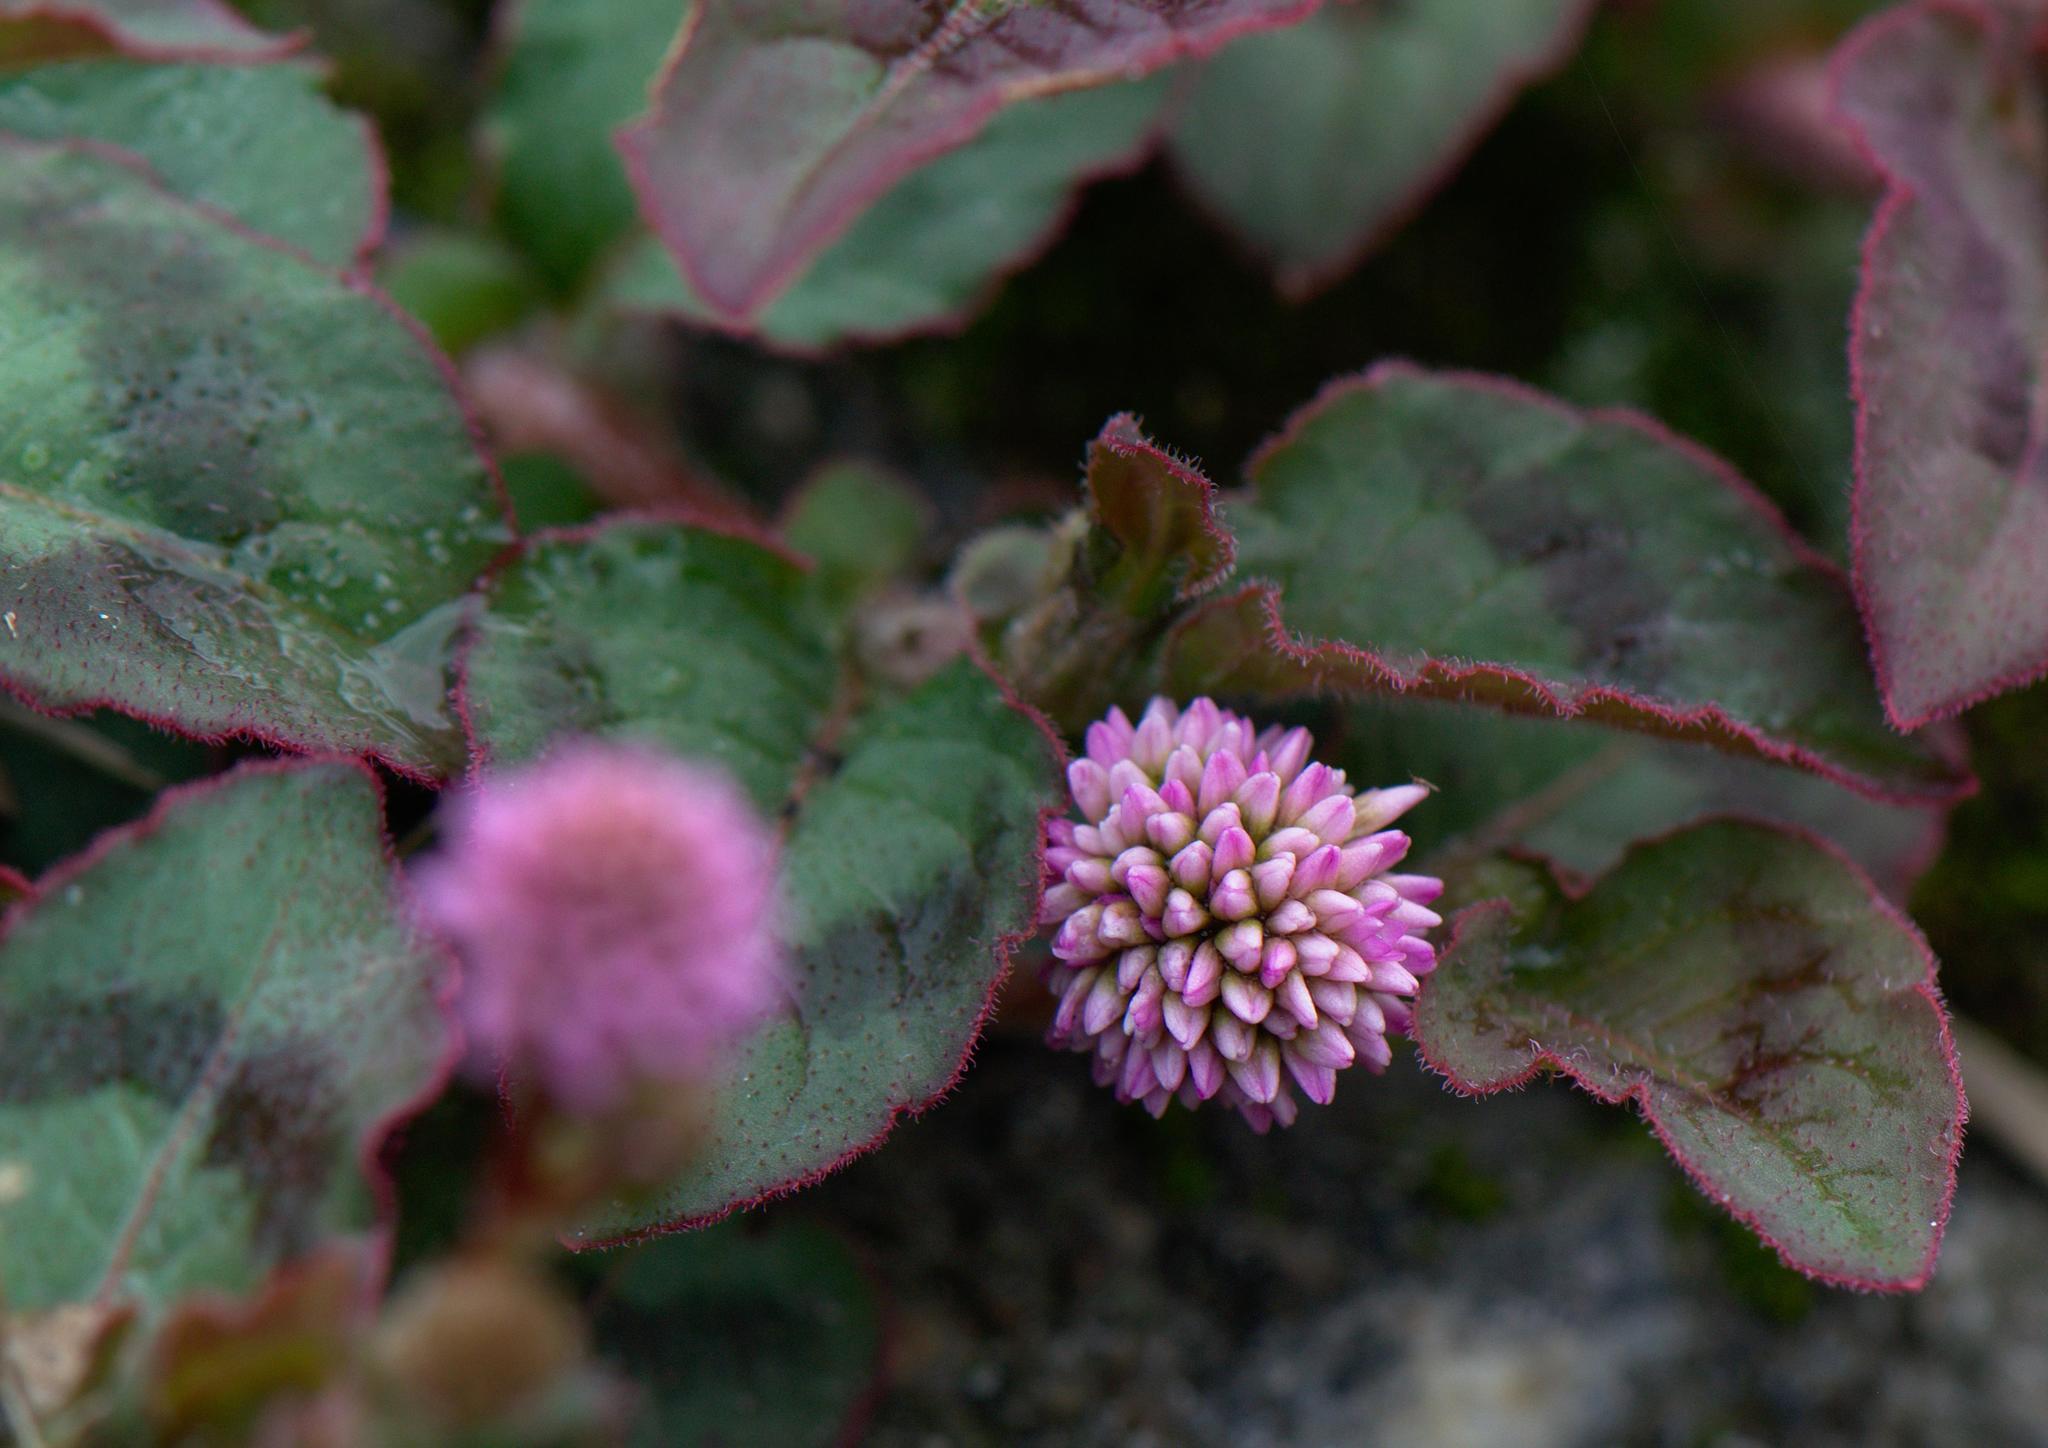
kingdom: Plantae
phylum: Tracheophyta
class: Magnoliopsida
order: Caryophyllales
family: Polygonaceae
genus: Persicaria
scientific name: Persicaria capitata
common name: Pinkhead smartweed
